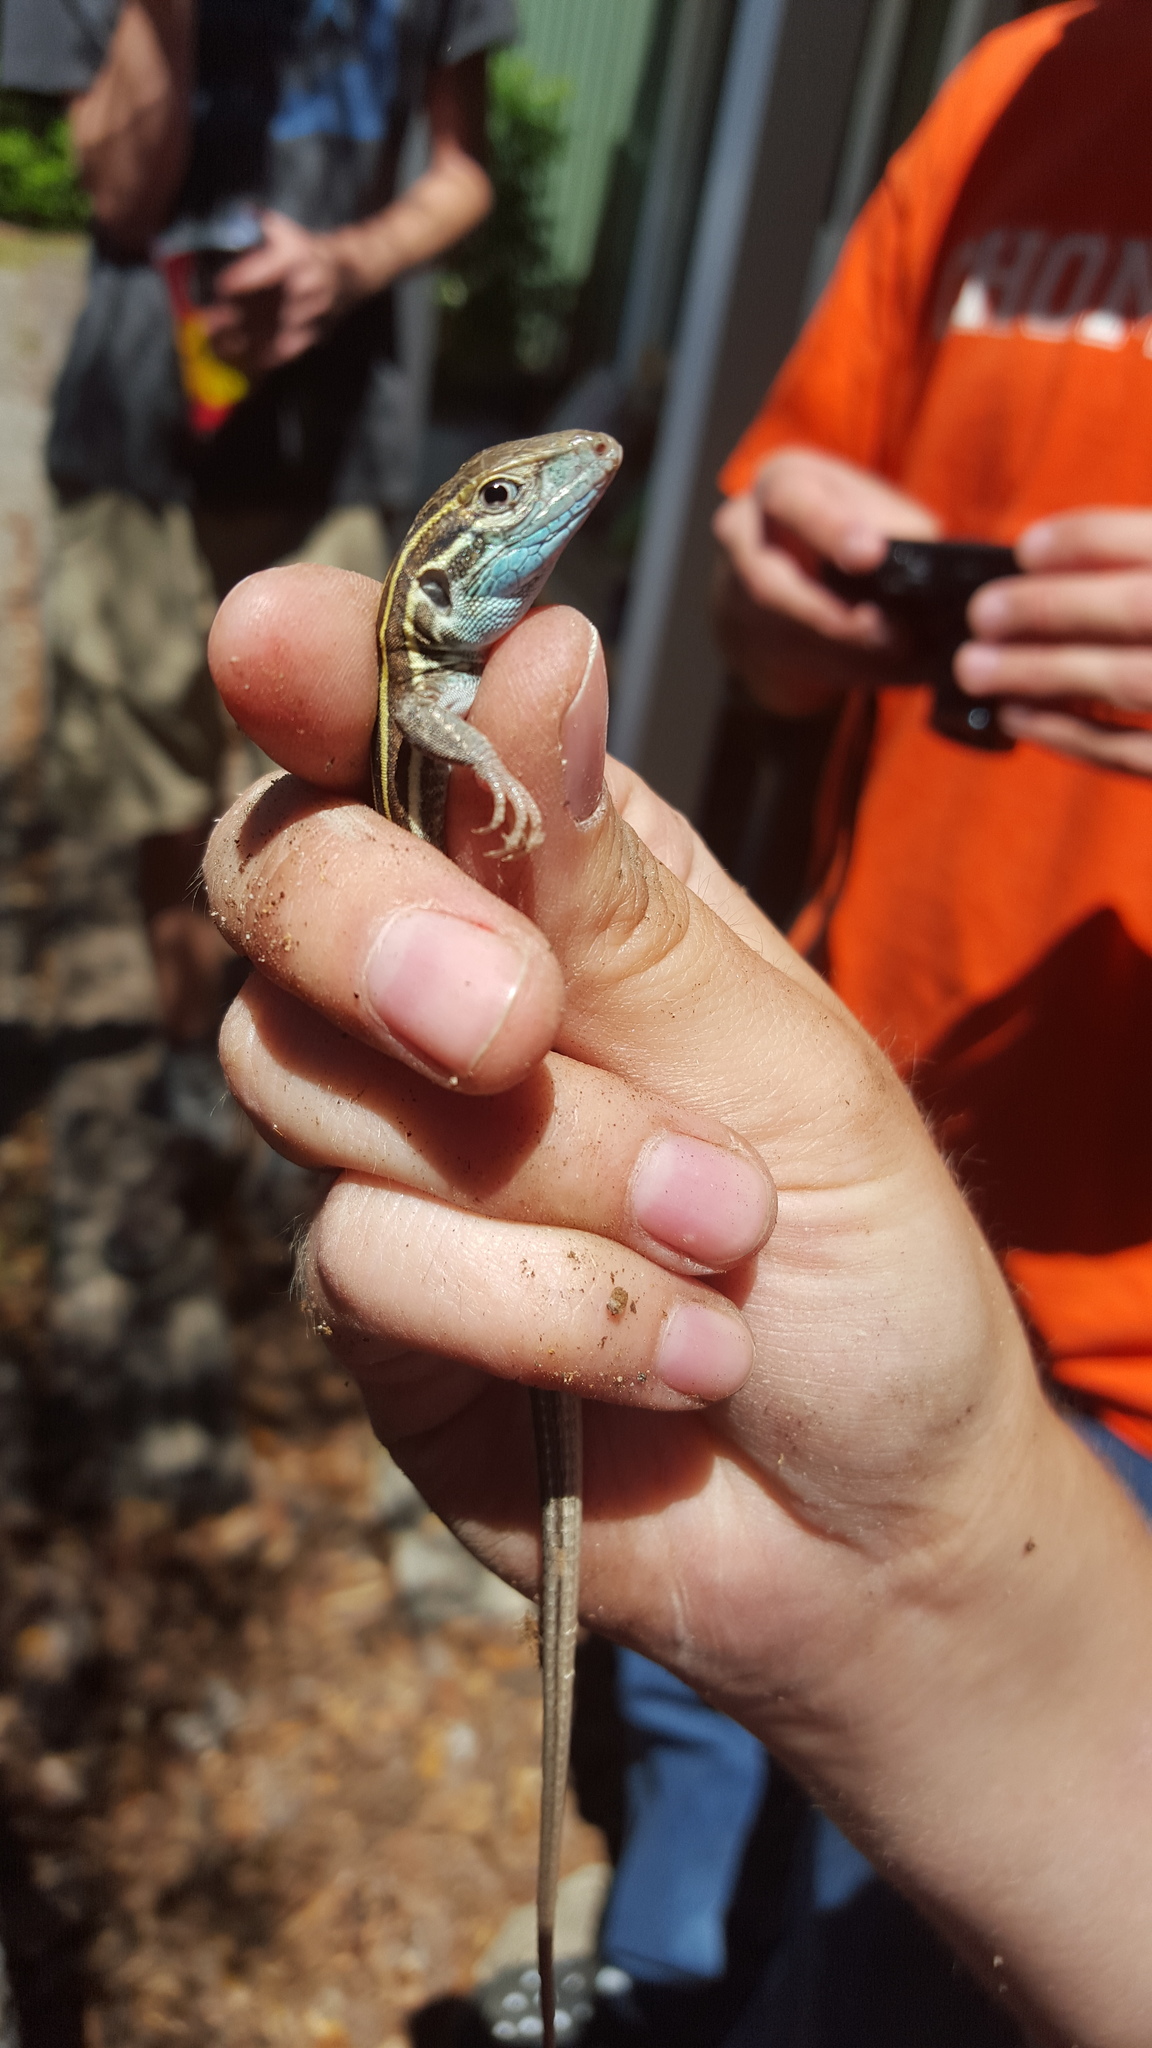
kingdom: Animalia
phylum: Chordata
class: Squamata
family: Teiidae
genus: Aspidoscelis
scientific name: Aspidoscelis sexlineatus
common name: Six-lined racerunner
